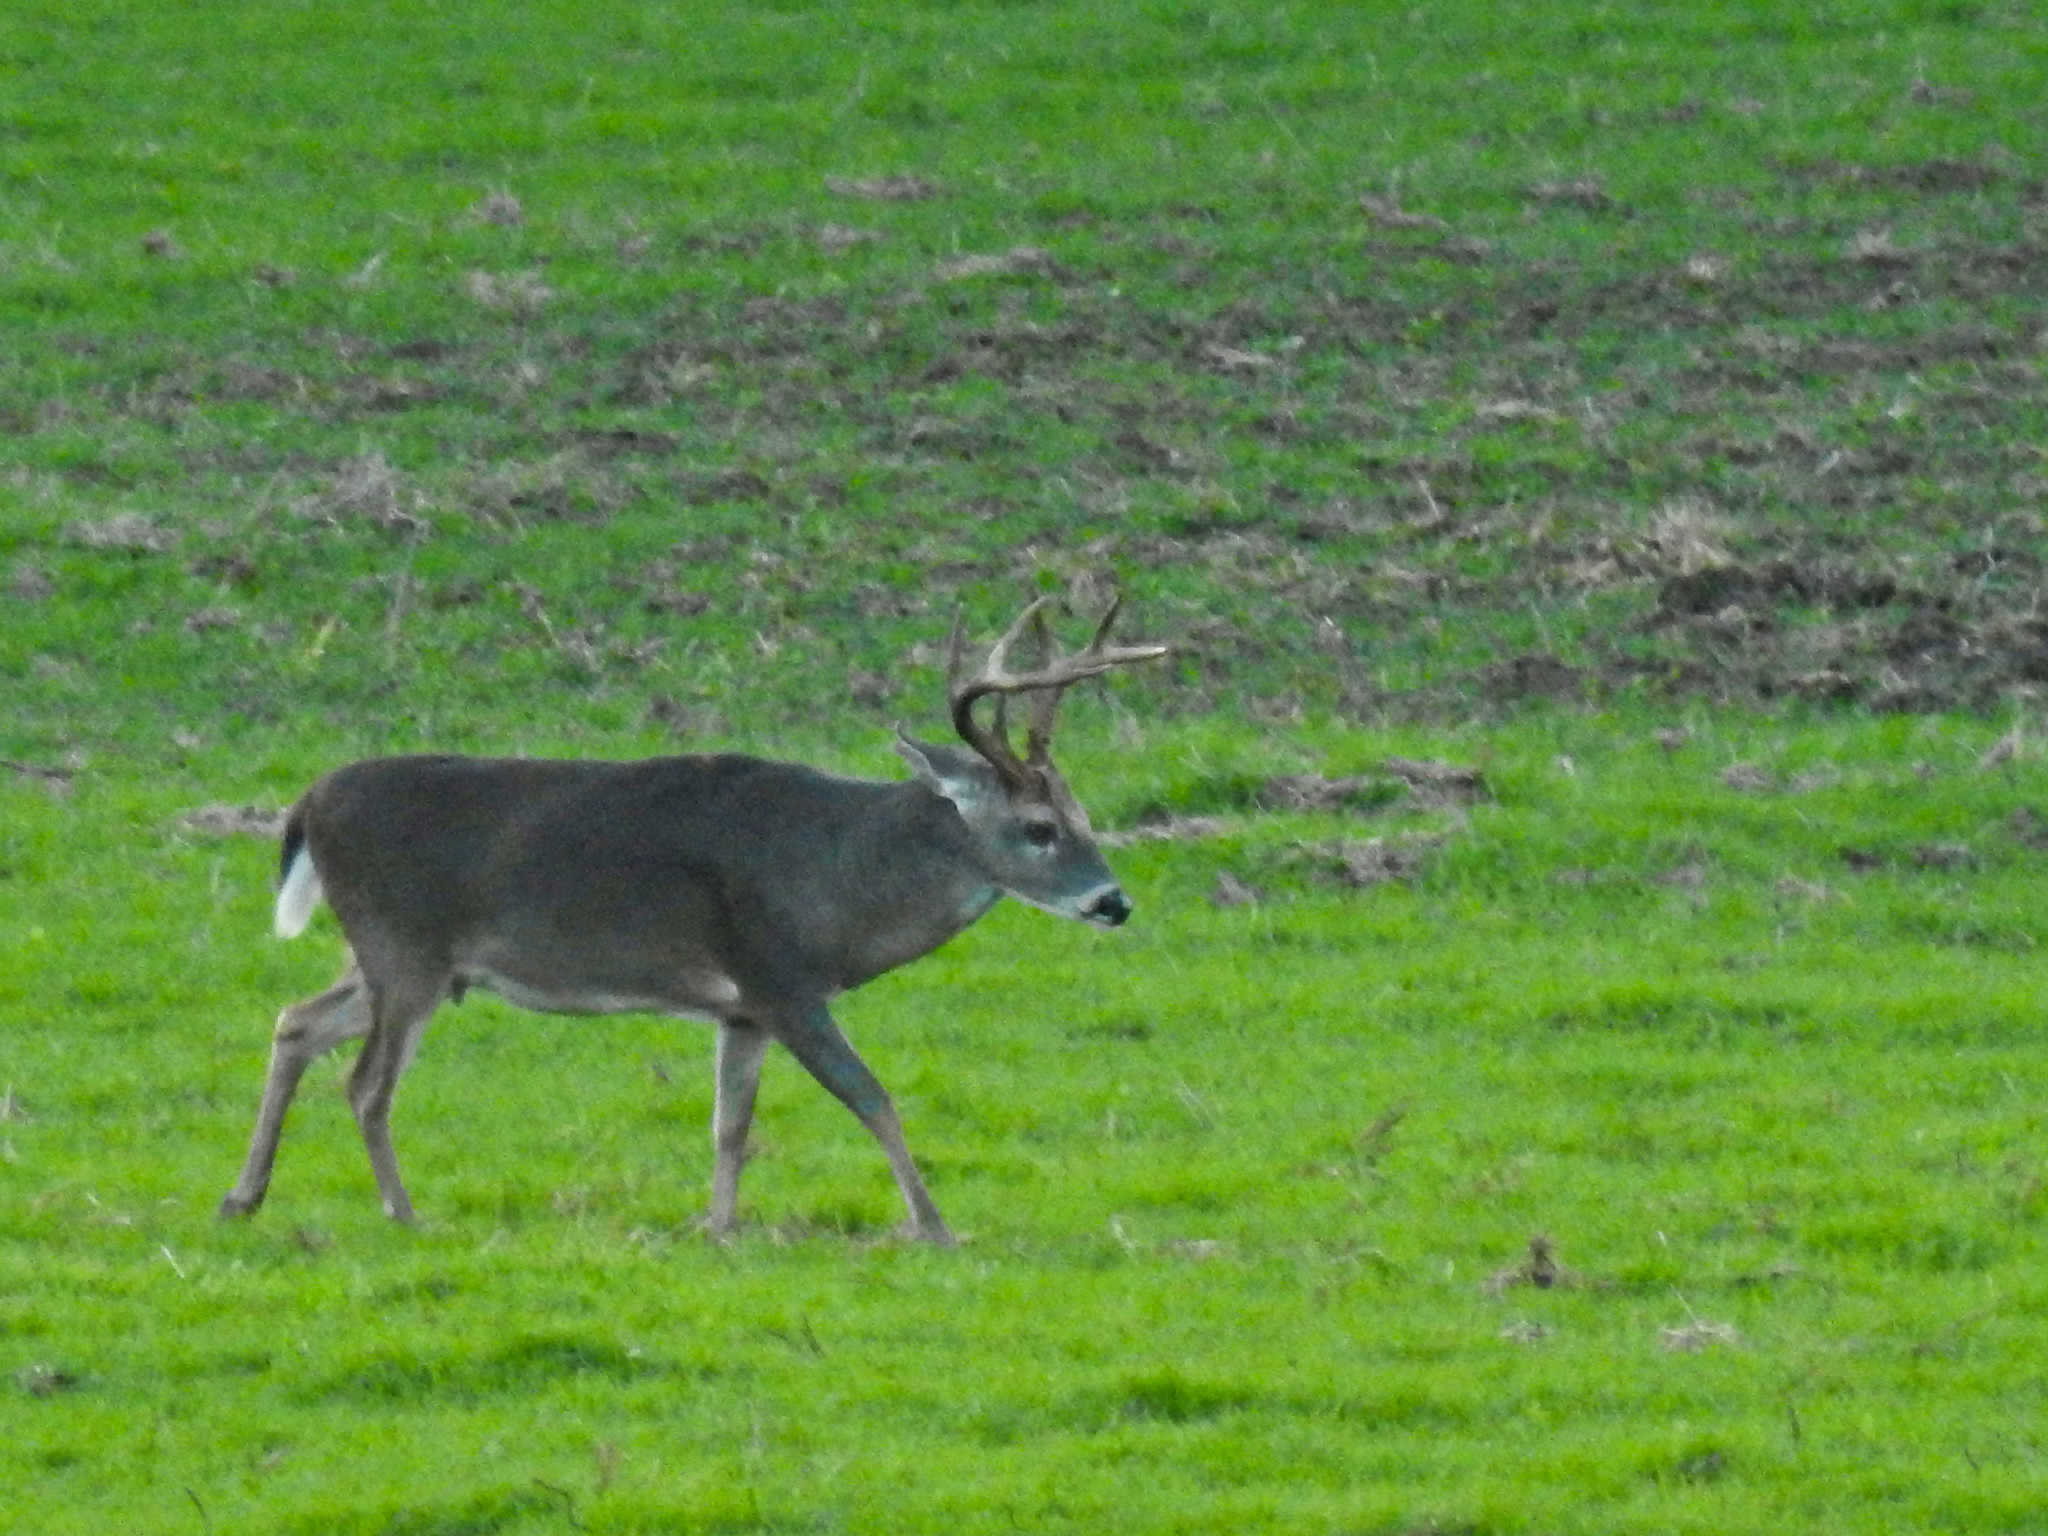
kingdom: Animalia
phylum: Chordata
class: Mammalia
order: Artiodactyla
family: Cervidae
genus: Odocoileus
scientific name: Odocoileus virginianus
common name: White-tailed deer
